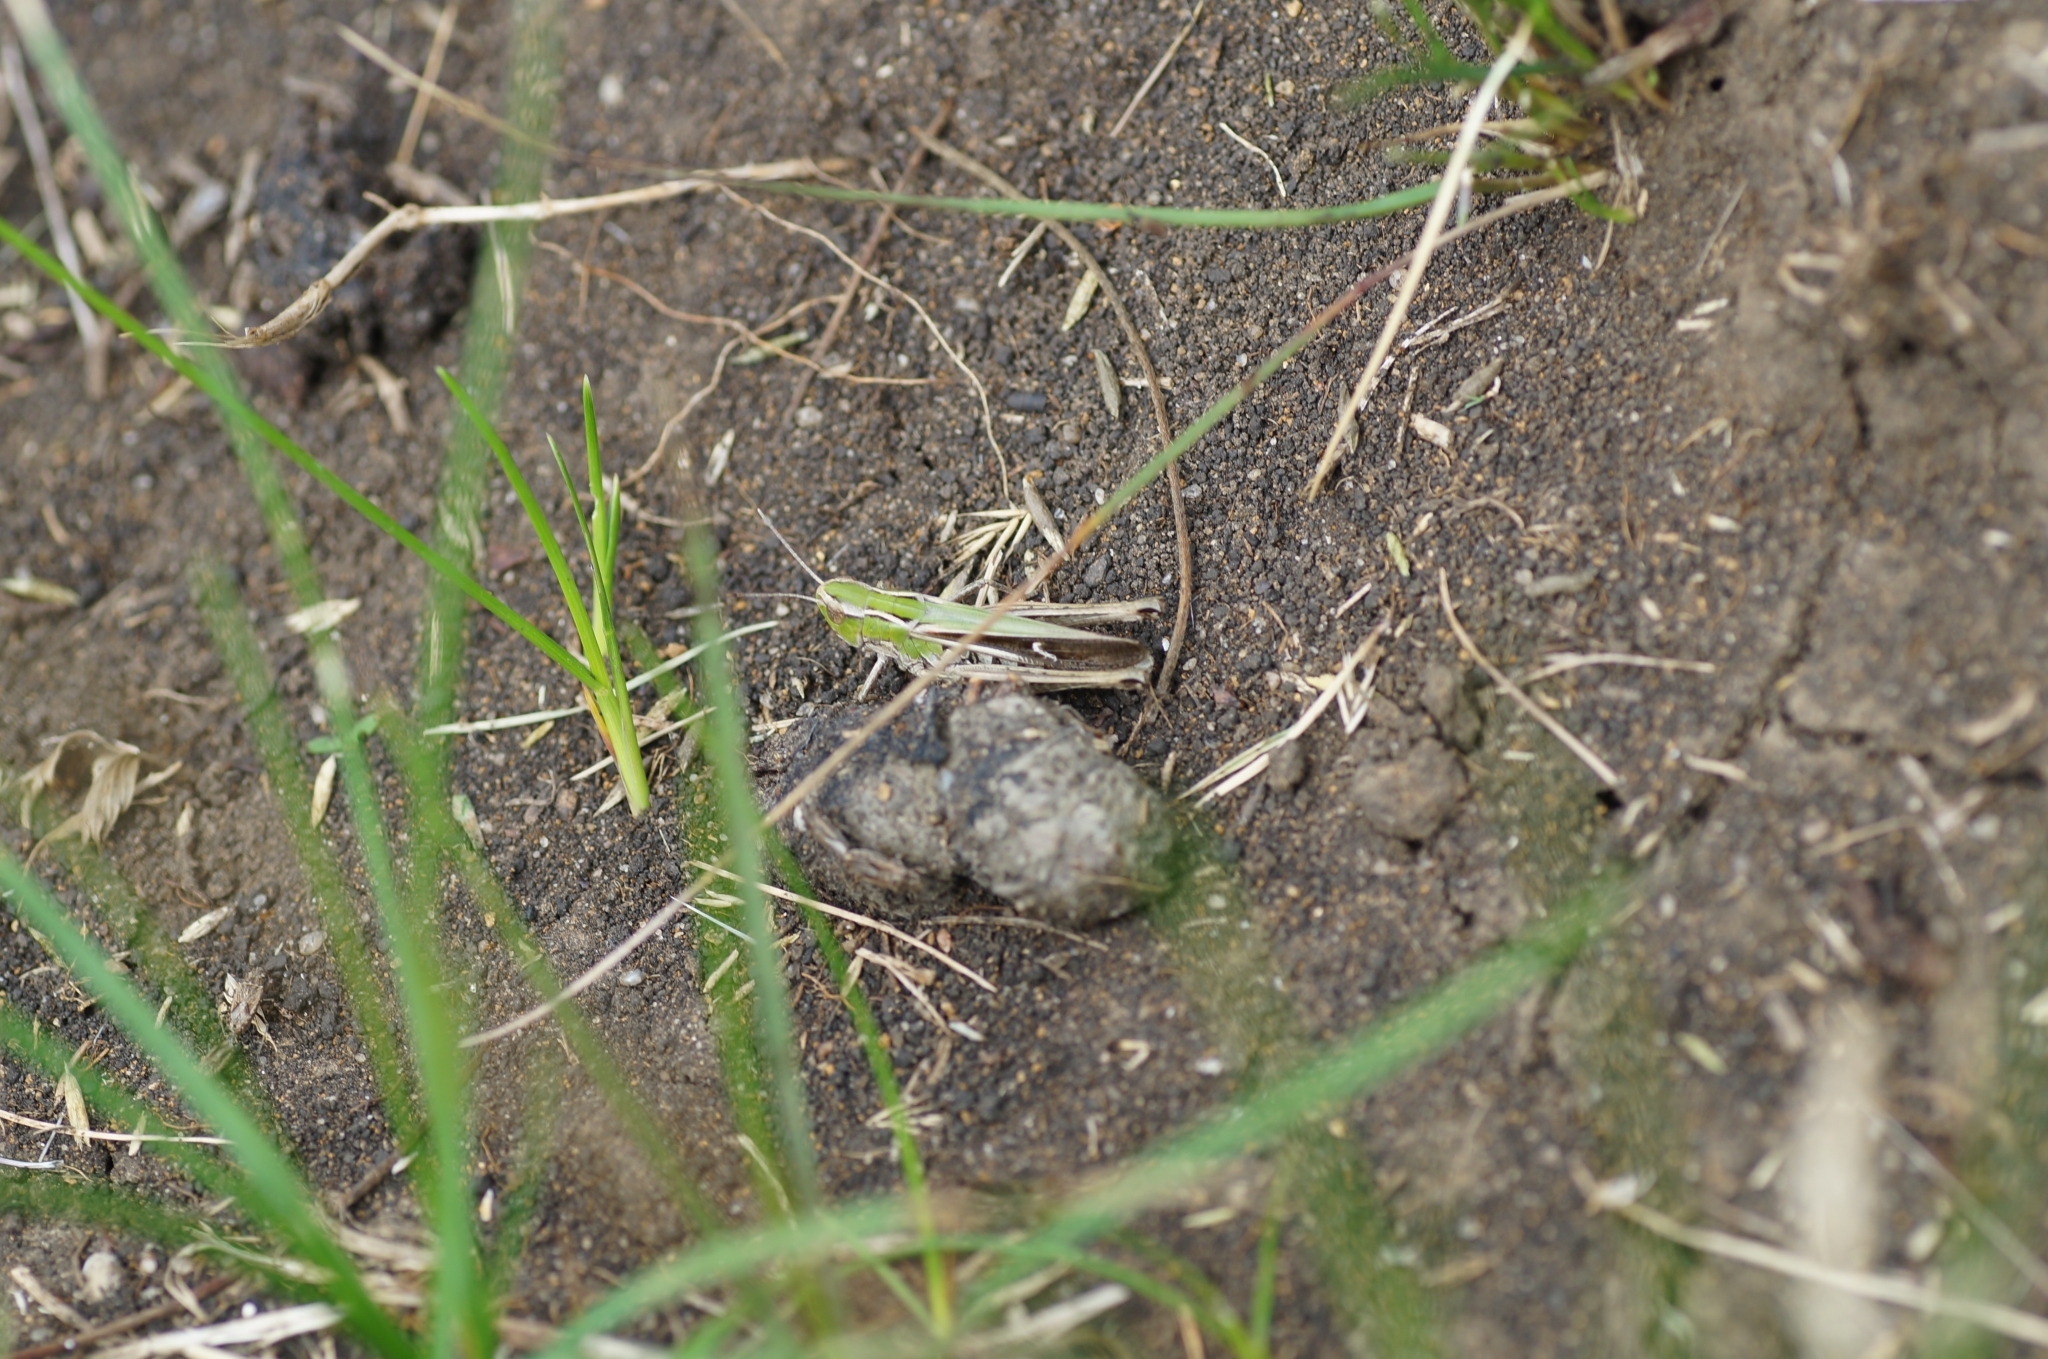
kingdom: Animalia
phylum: Arthropoda
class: Insecta
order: Orthoptera
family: Acrididae
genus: Stenobothrus
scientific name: Stenobothrus lineatus
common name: Stripe-winged grasshopper
